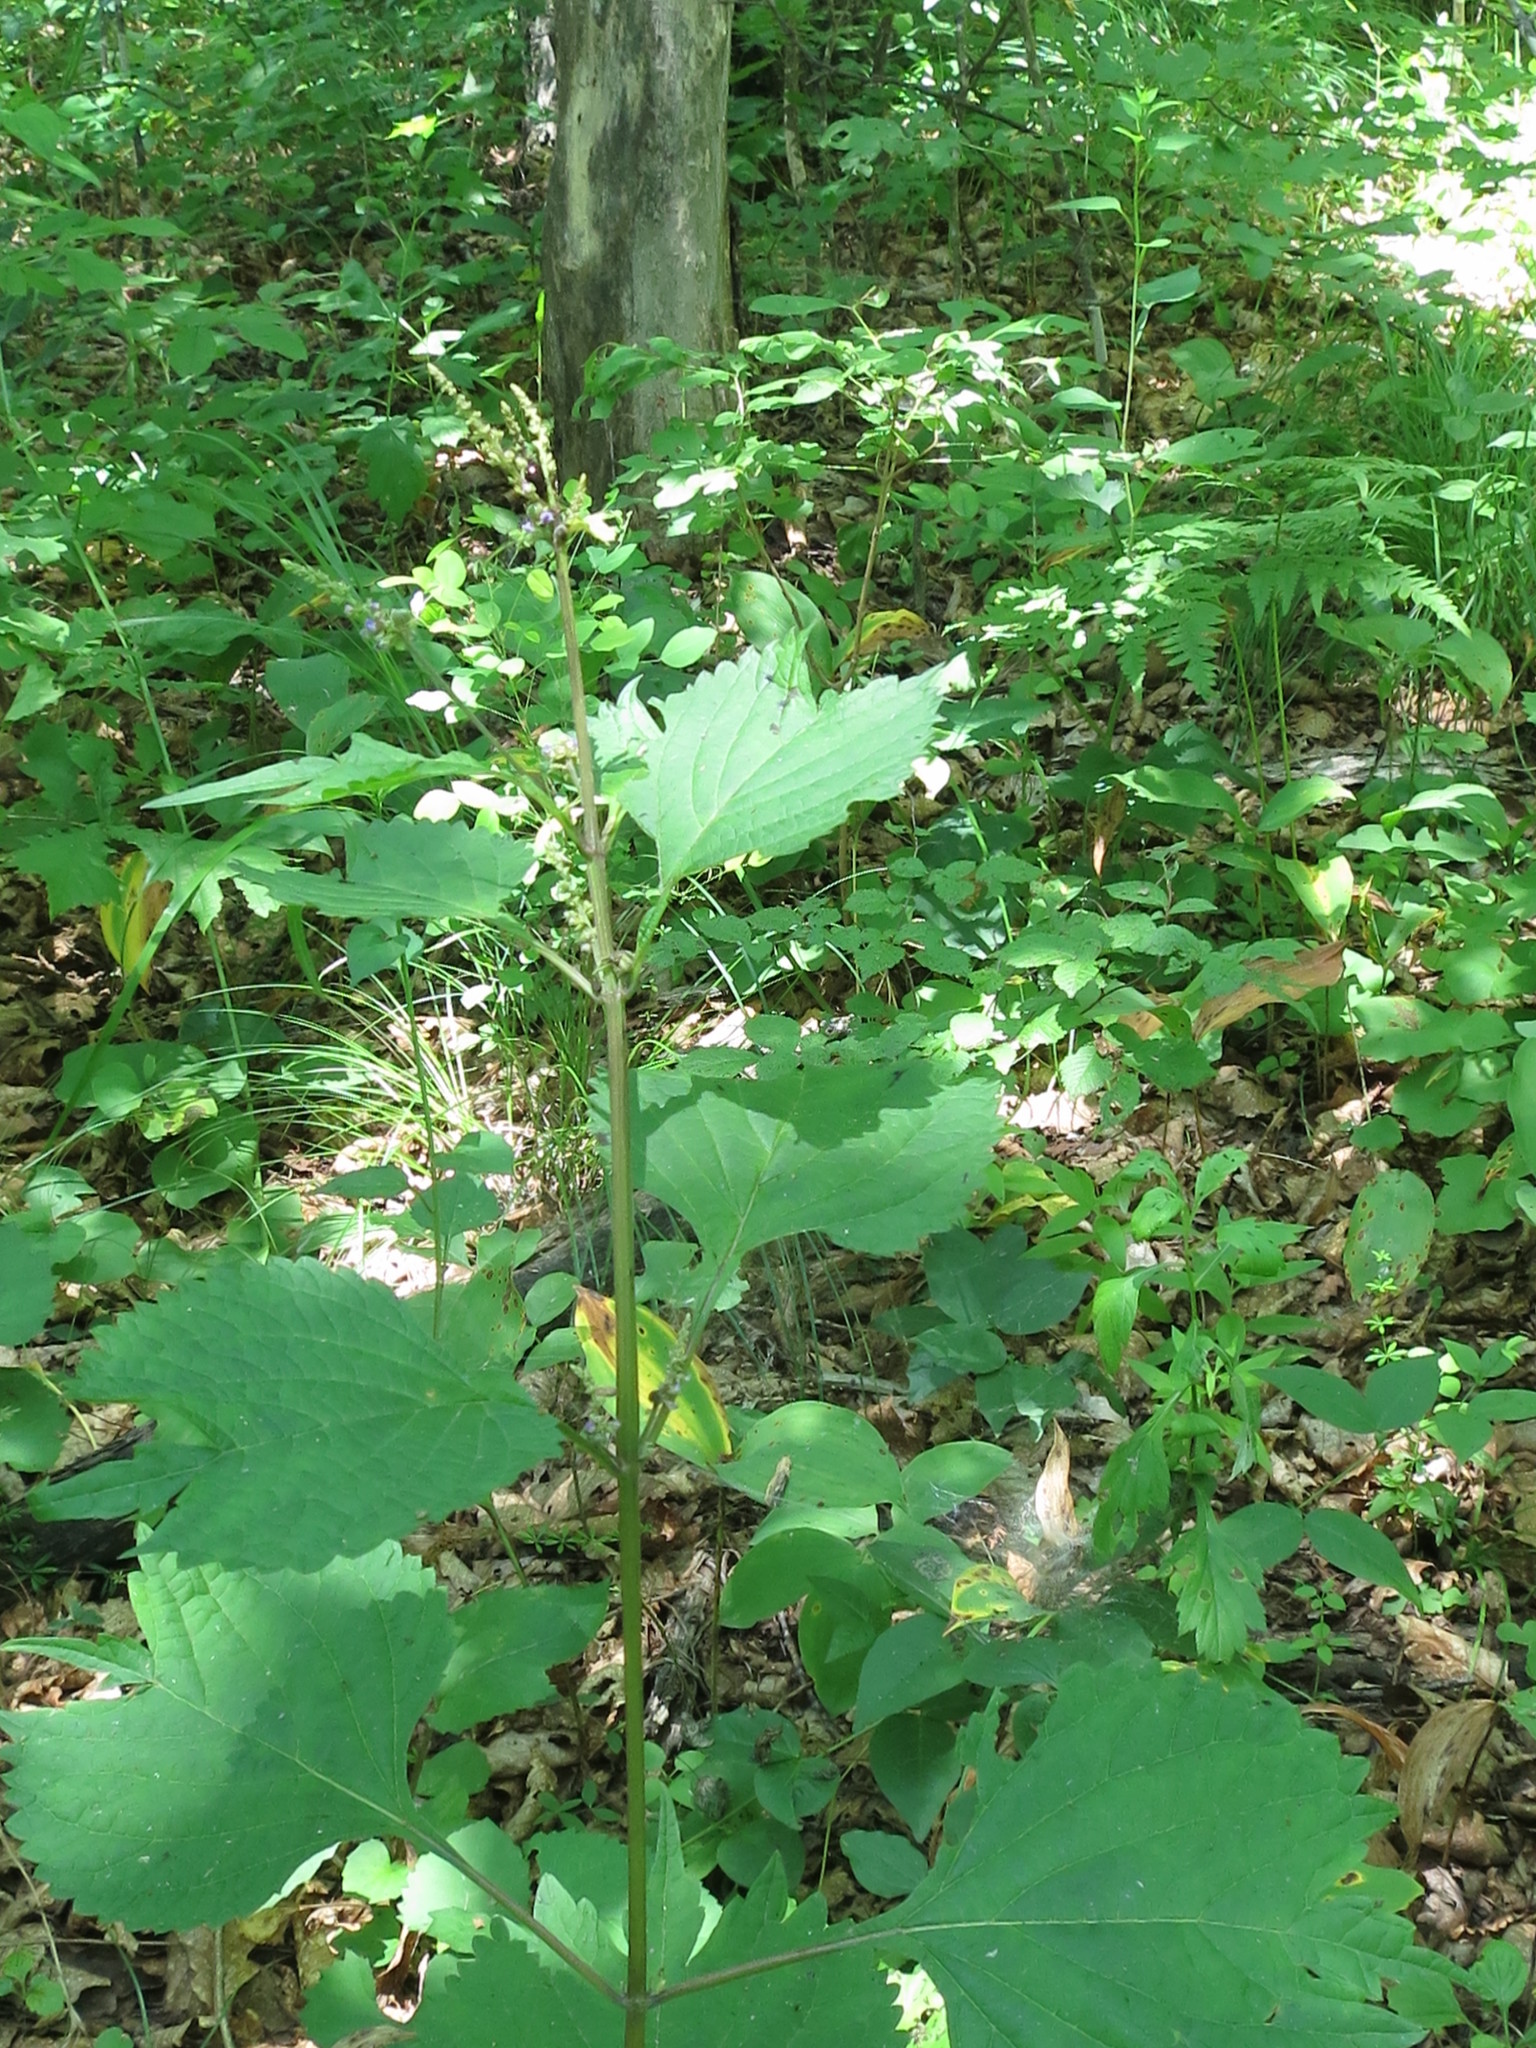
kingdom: Plantae
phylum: Tracheophyta
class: Magnoliopsida
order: Lamiales
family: Lamiaceae
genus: Isodon
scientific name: Isodon excisus
